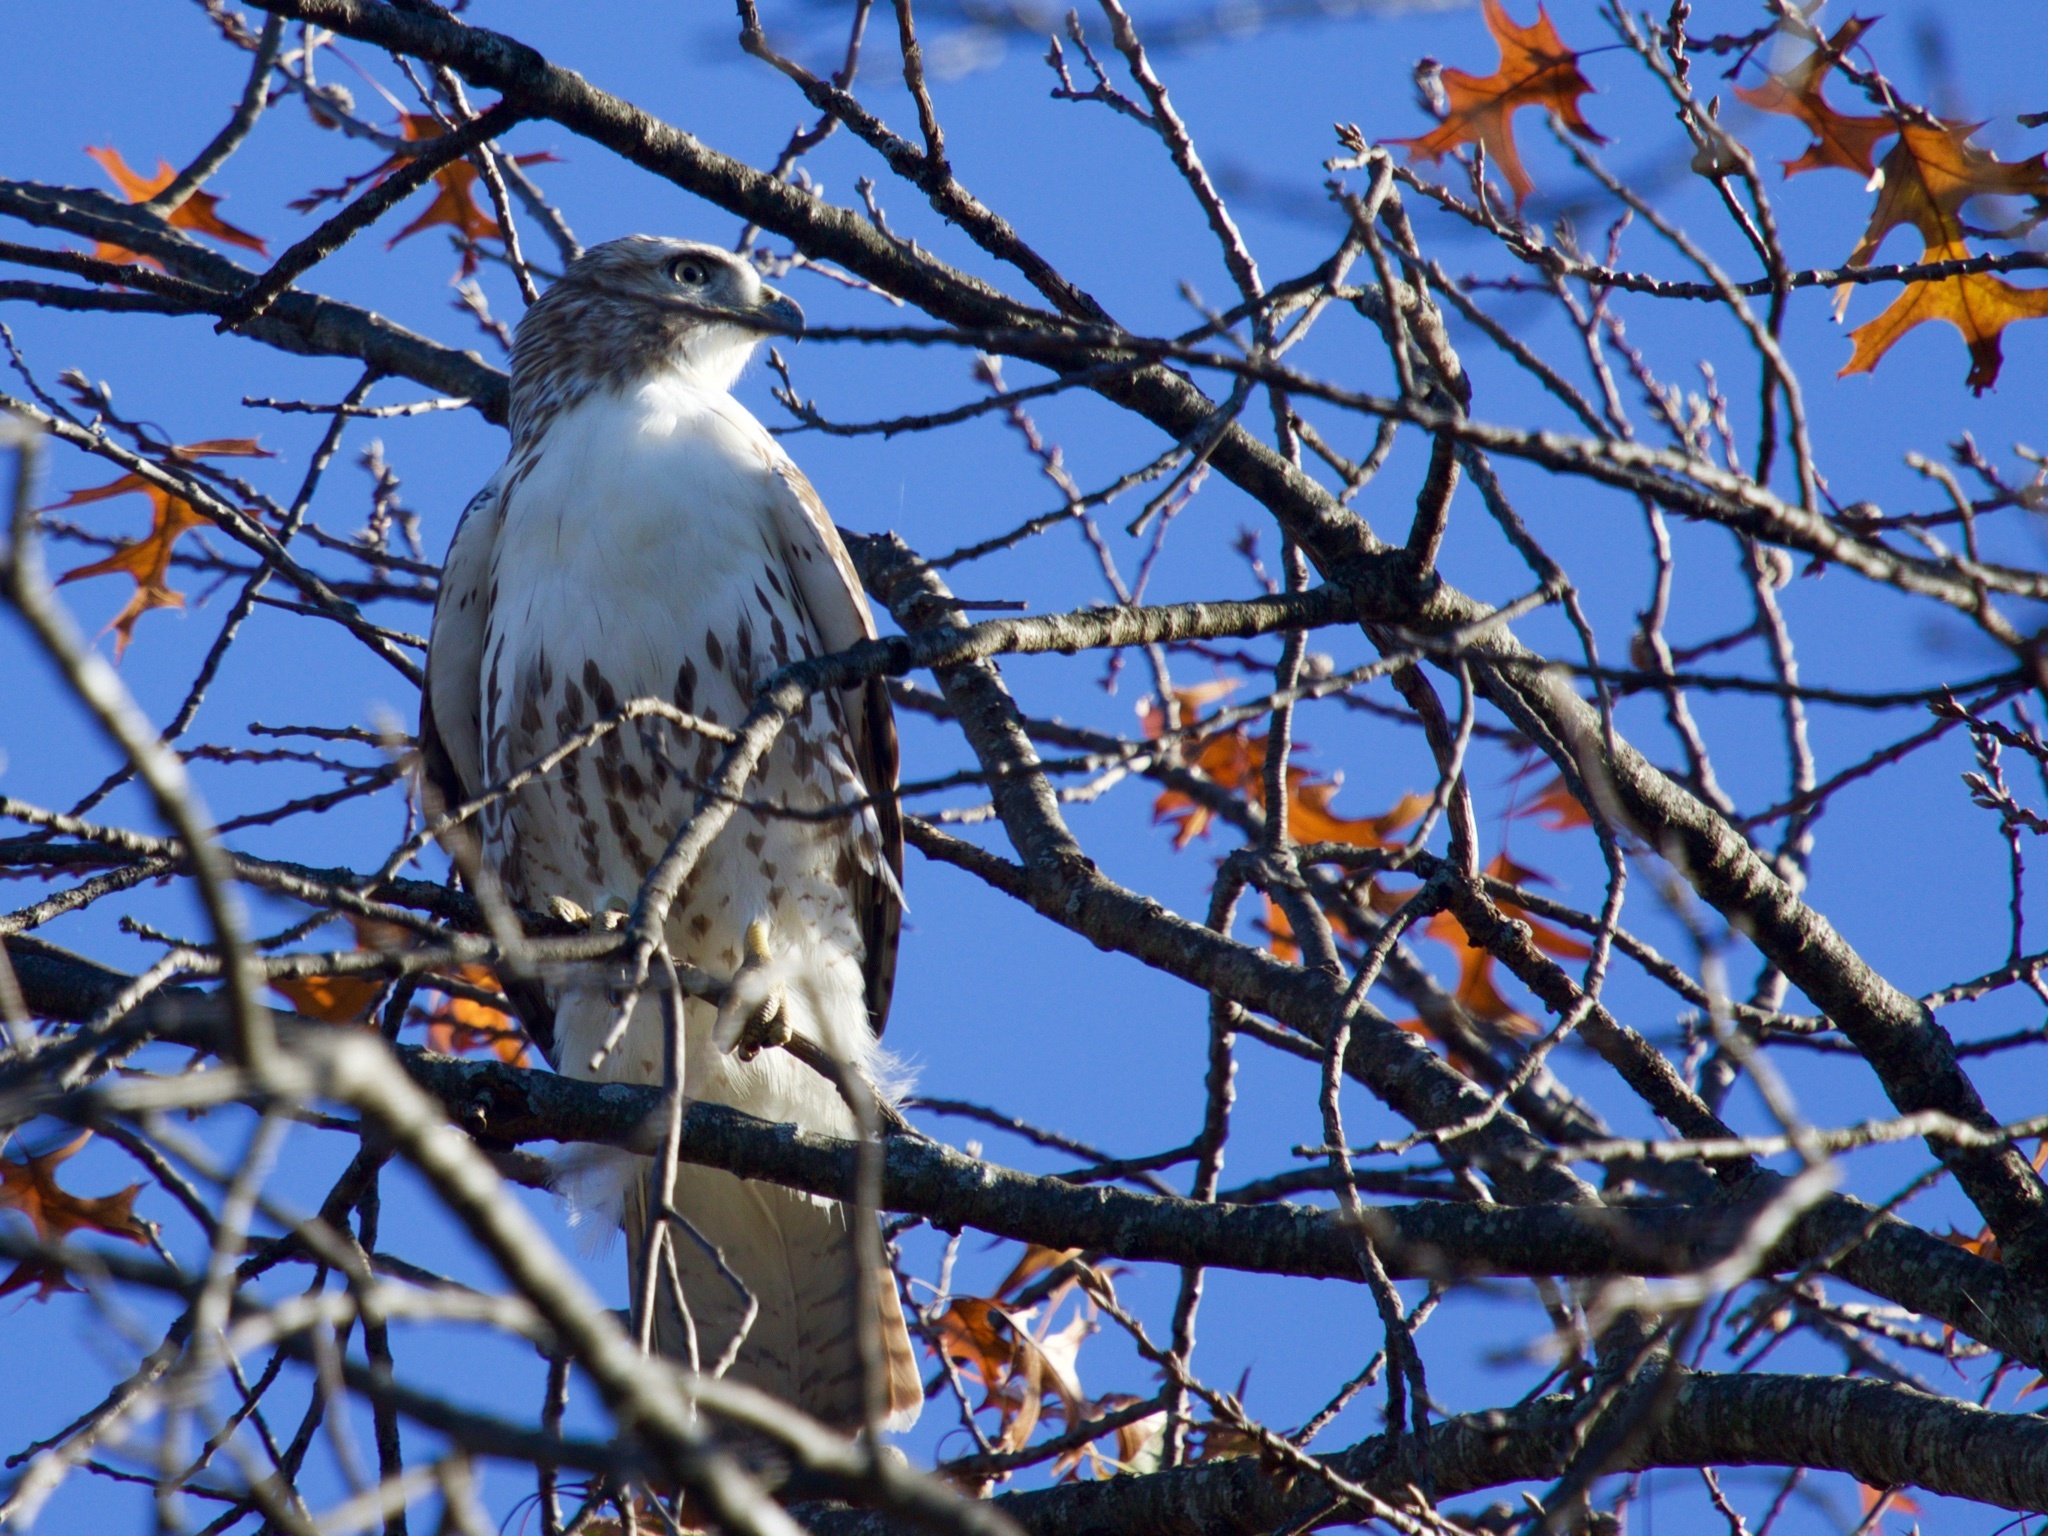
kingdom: Animalia
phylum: Chordata
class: Aves
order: Accipitriformes
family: Accipitridae
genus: Buteo
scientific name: Buteo jamaicensis
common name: Red-tailed hawk
